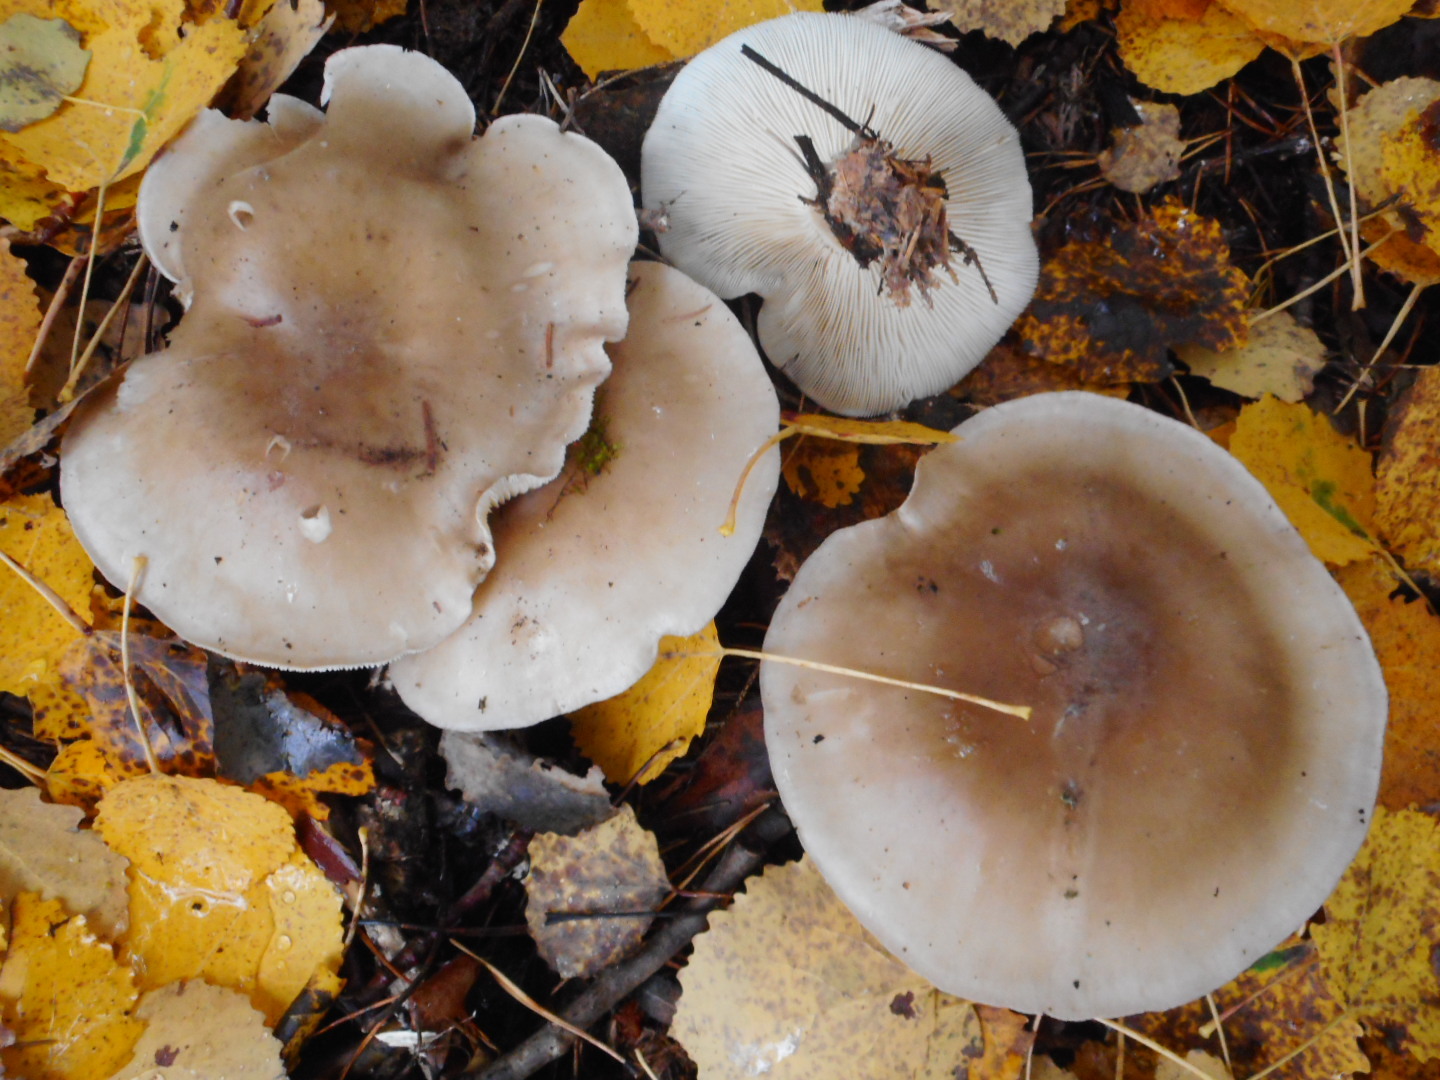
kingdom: Fungi
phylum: Basidiomycota
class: Agaricomycetes
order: Agaricales
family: Tricholomataceae
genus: Clitocybe
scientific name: Clitocybe nebularis
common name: Clouded agaric
